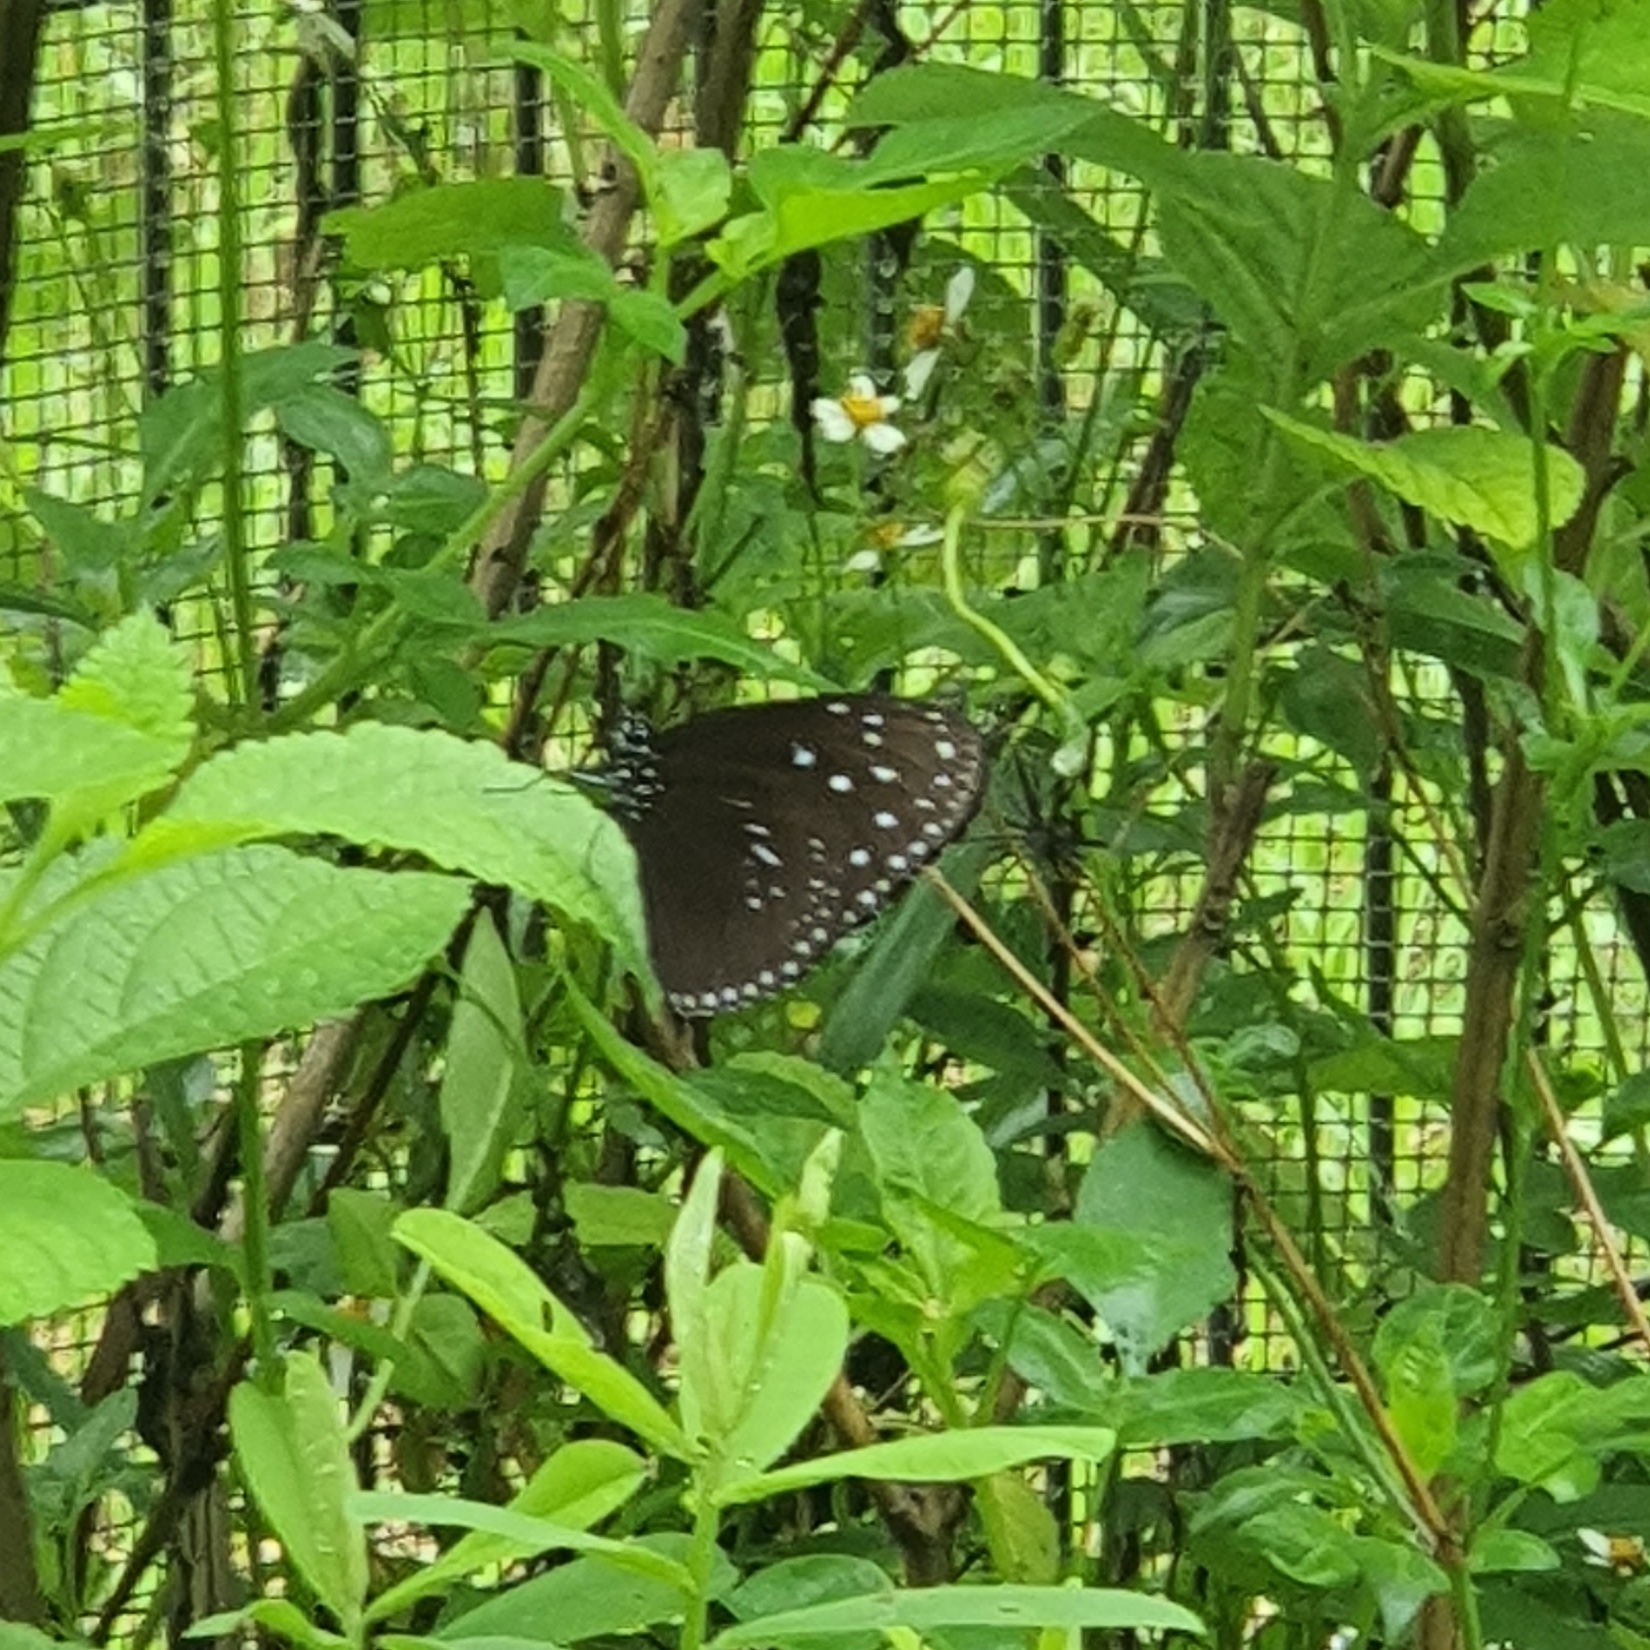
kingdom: Animalia
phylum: Arthropoda
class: Insecta
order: Lepidoptera
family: Nymphalidae
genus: Euploea
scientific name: Euploea mulciber
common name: Striped blue crow butterfly
